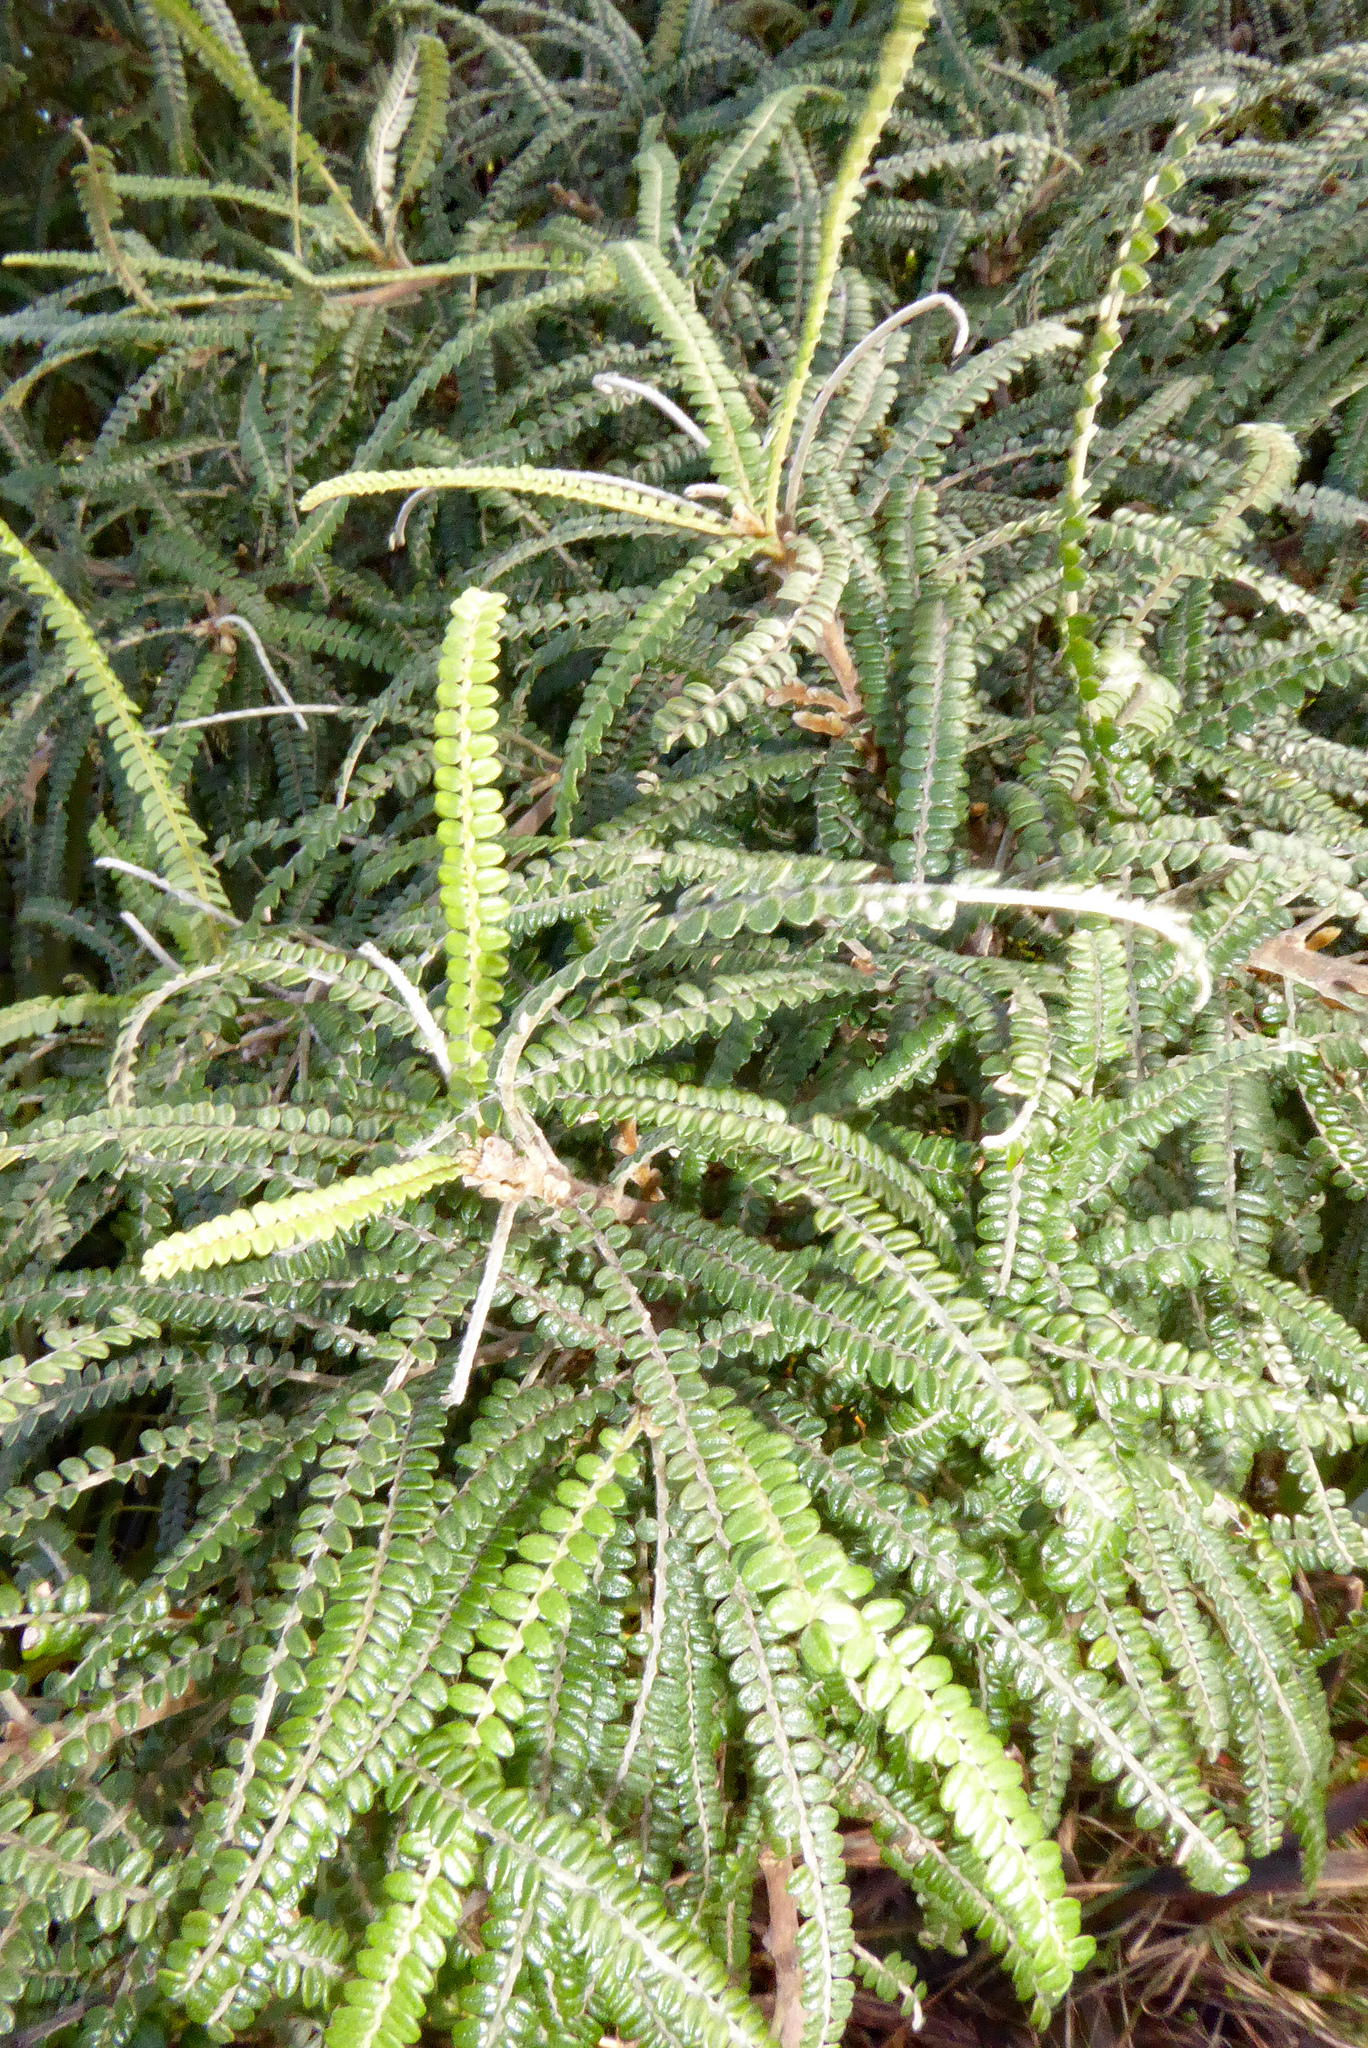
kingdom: Plantae
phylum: Tracheophyta
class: Magnoliopsida
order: Fabales
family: Fabaceae
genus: Sophora
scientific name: Sophora fulvida
